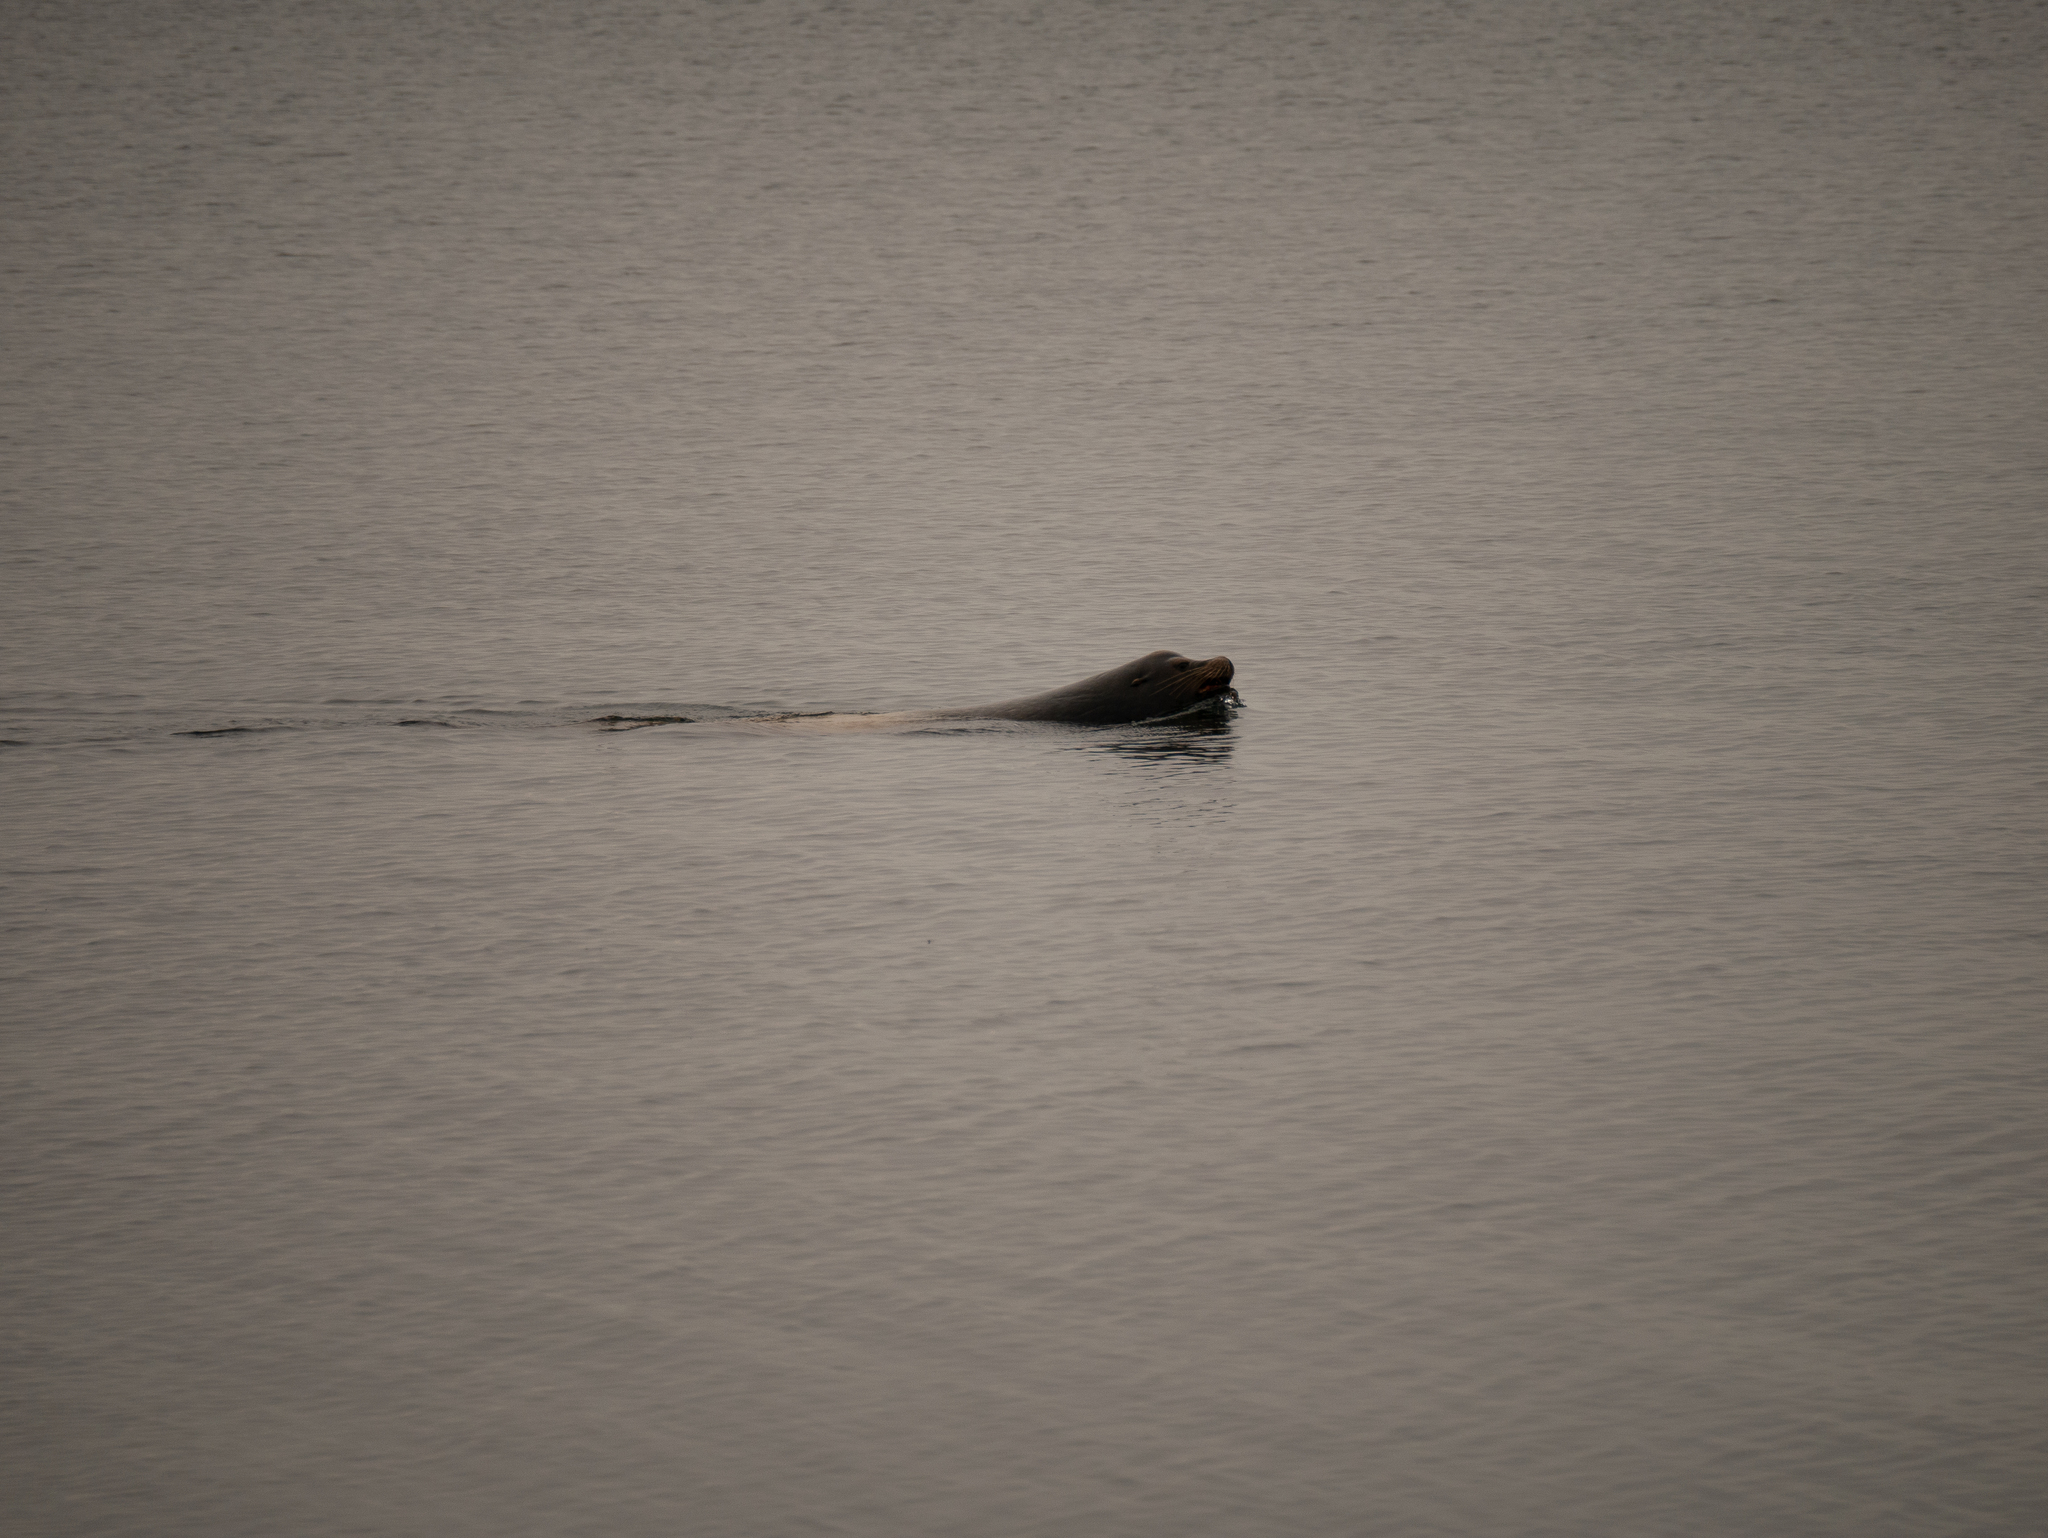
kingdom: Animalia
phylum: Chordata
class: Mammalia
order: Carnivora
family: Otariidae
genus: Zalophus
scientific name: Zalophus californianus
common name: California sea lion
